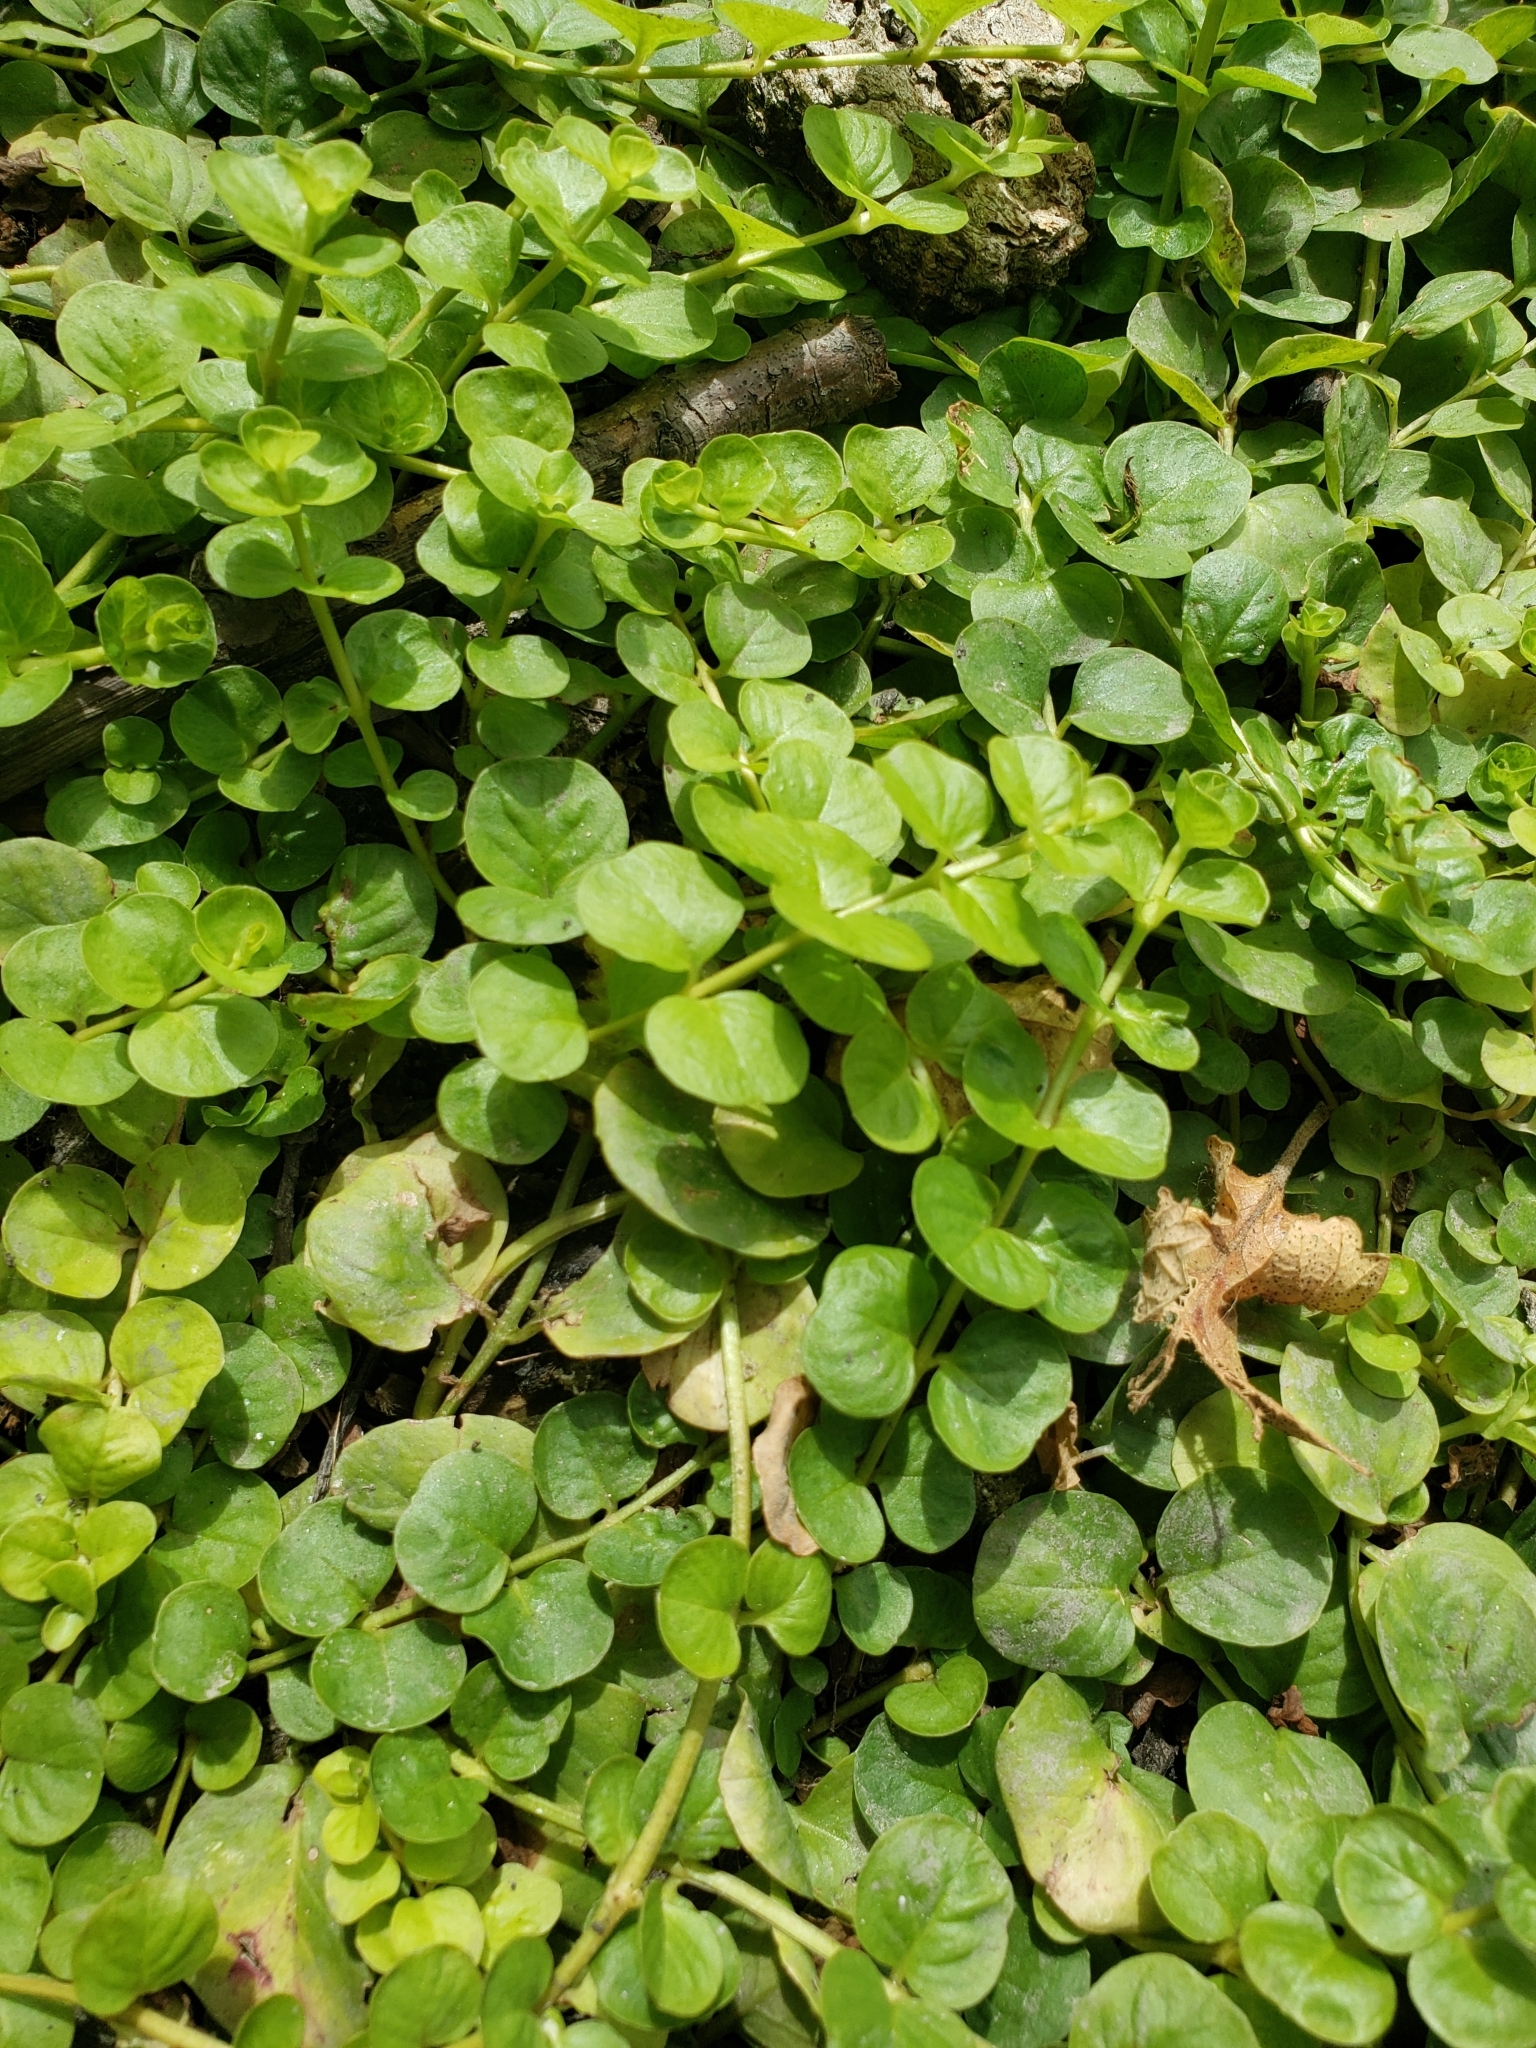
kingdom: Plantae
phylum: Tracheophyta
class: Magnoliopsida
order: Ericales
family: Primulaceae
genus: Lysimachia
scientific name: Lysimachia nummularia
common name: Moneywort
